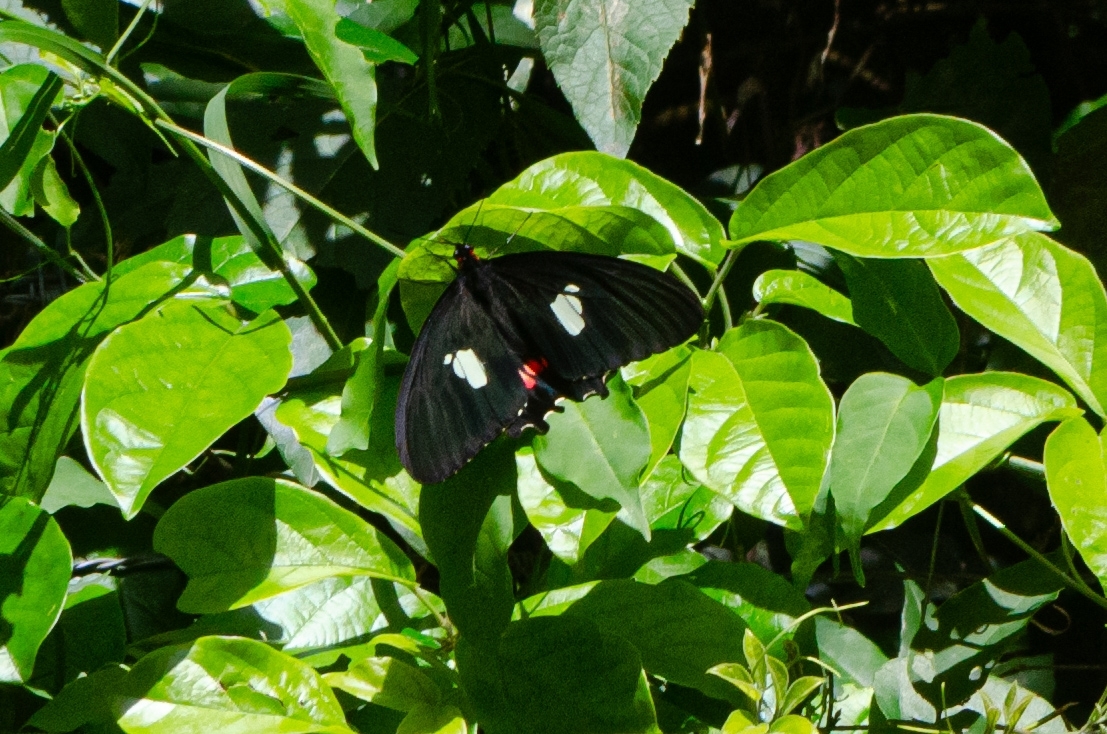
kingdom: Animalia
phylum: Arthropoda
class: Insecta
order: Lepidoptera
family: Papilionidae
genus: Parides
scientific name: Parides anchises
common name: Cattle heart
